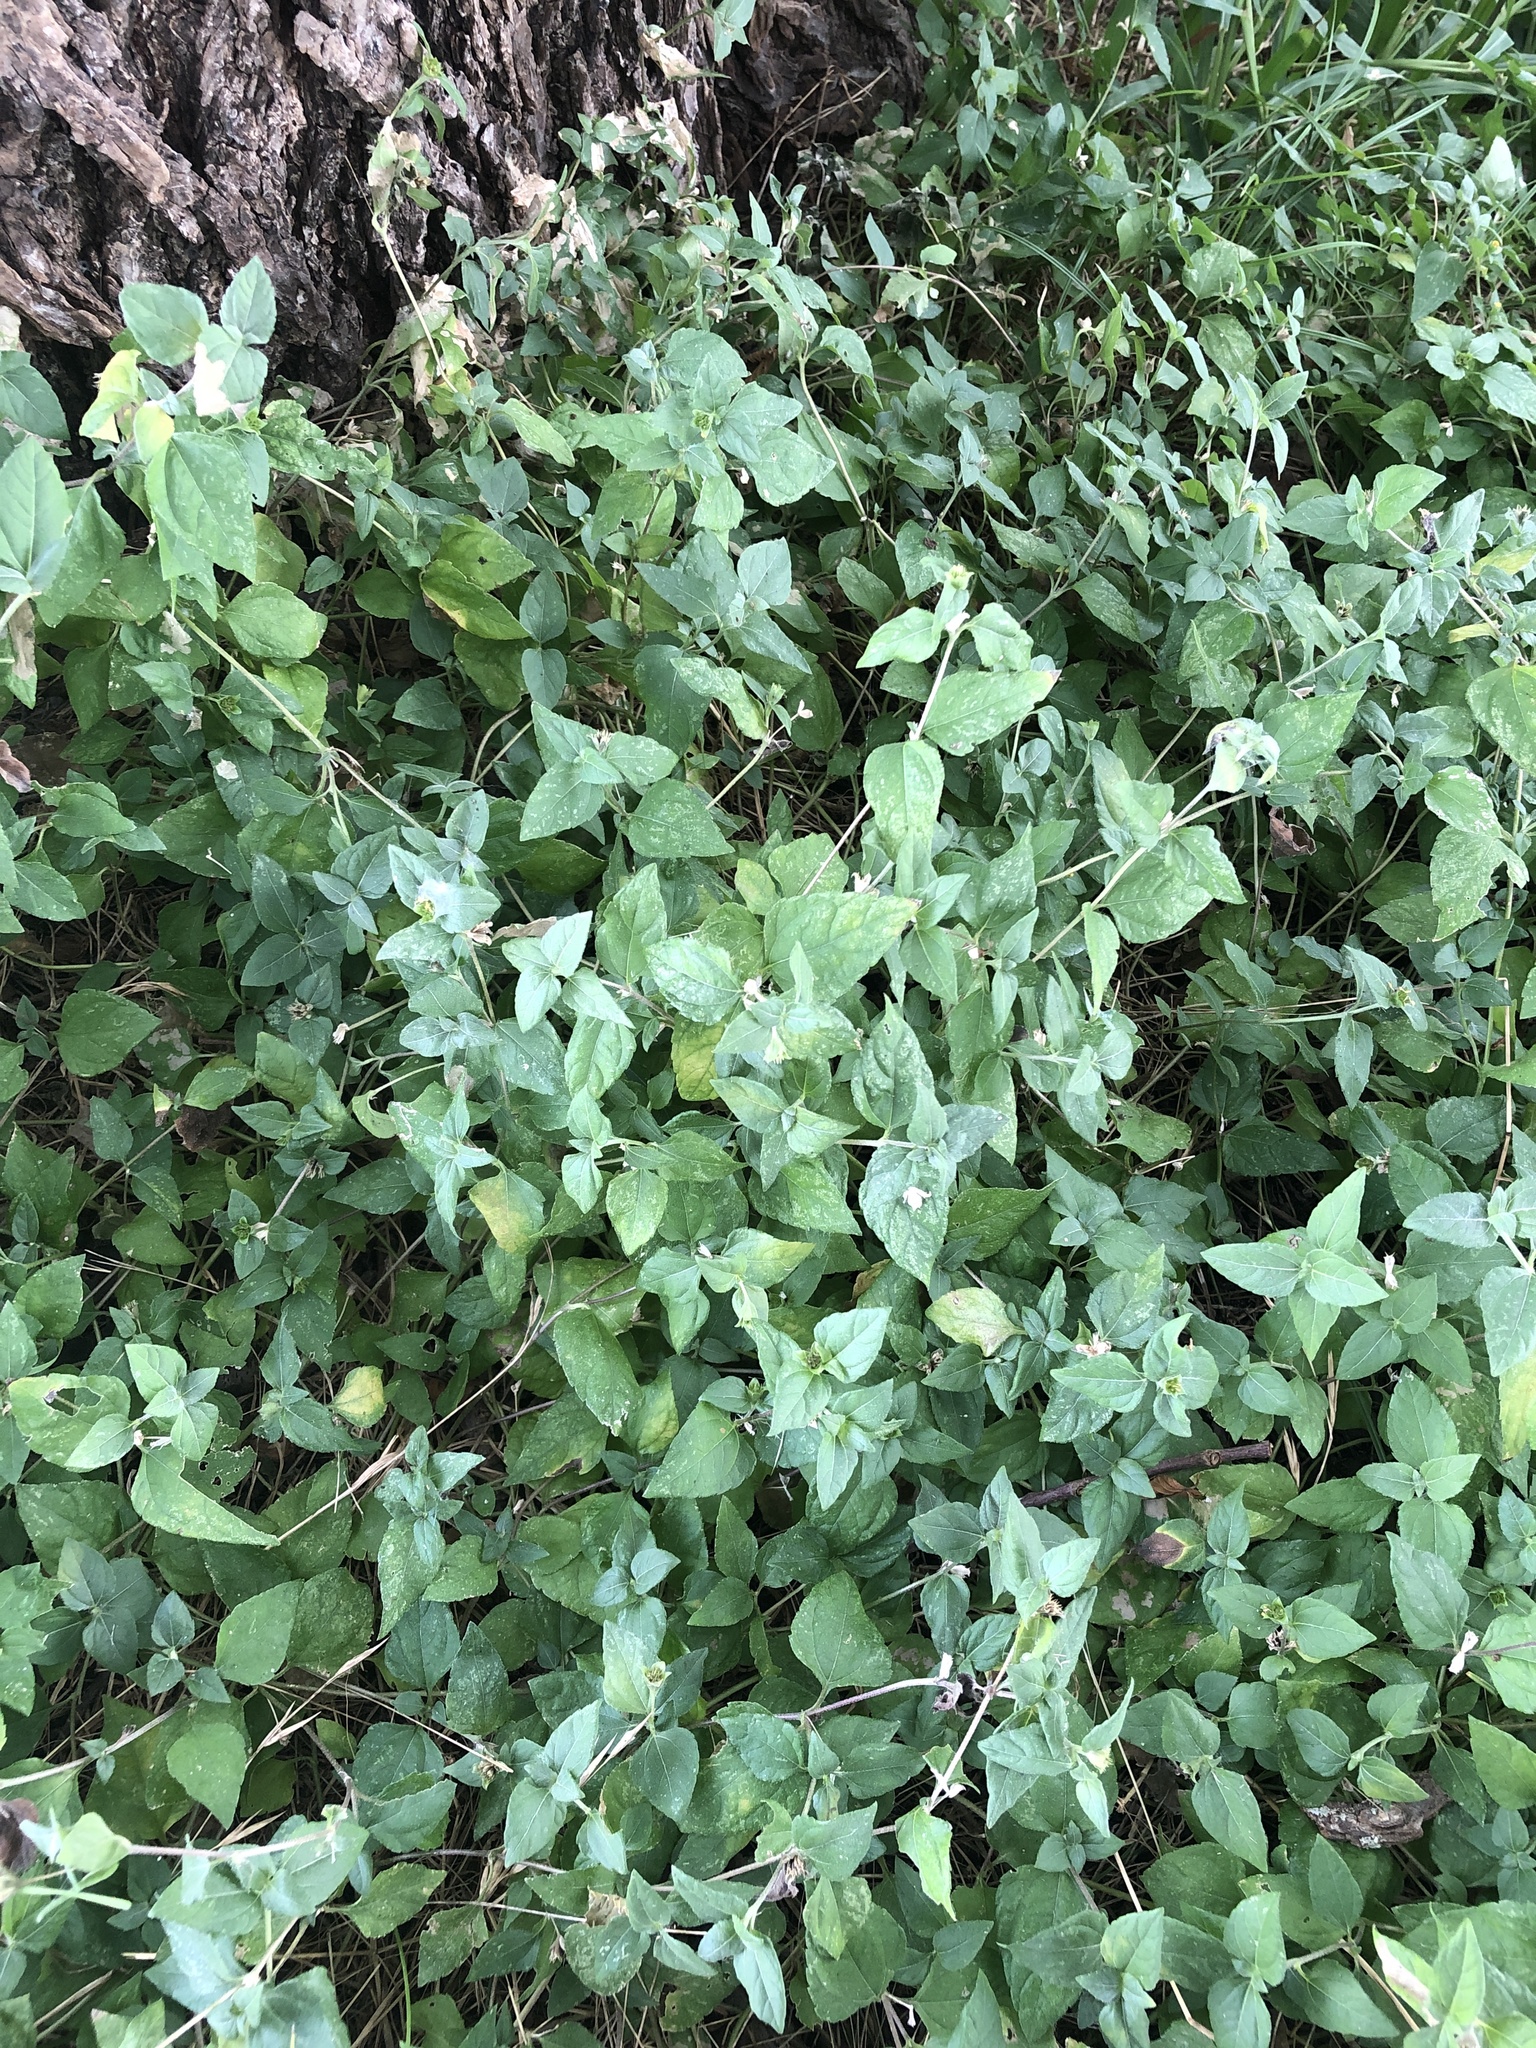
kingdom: Plantae
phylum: Tracheophyta
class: Magnoliopsida
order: Asterales
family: Asteraceae
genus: Calyptocarpus
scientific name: Calyptocarpus vialis
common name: Straggler daisy
